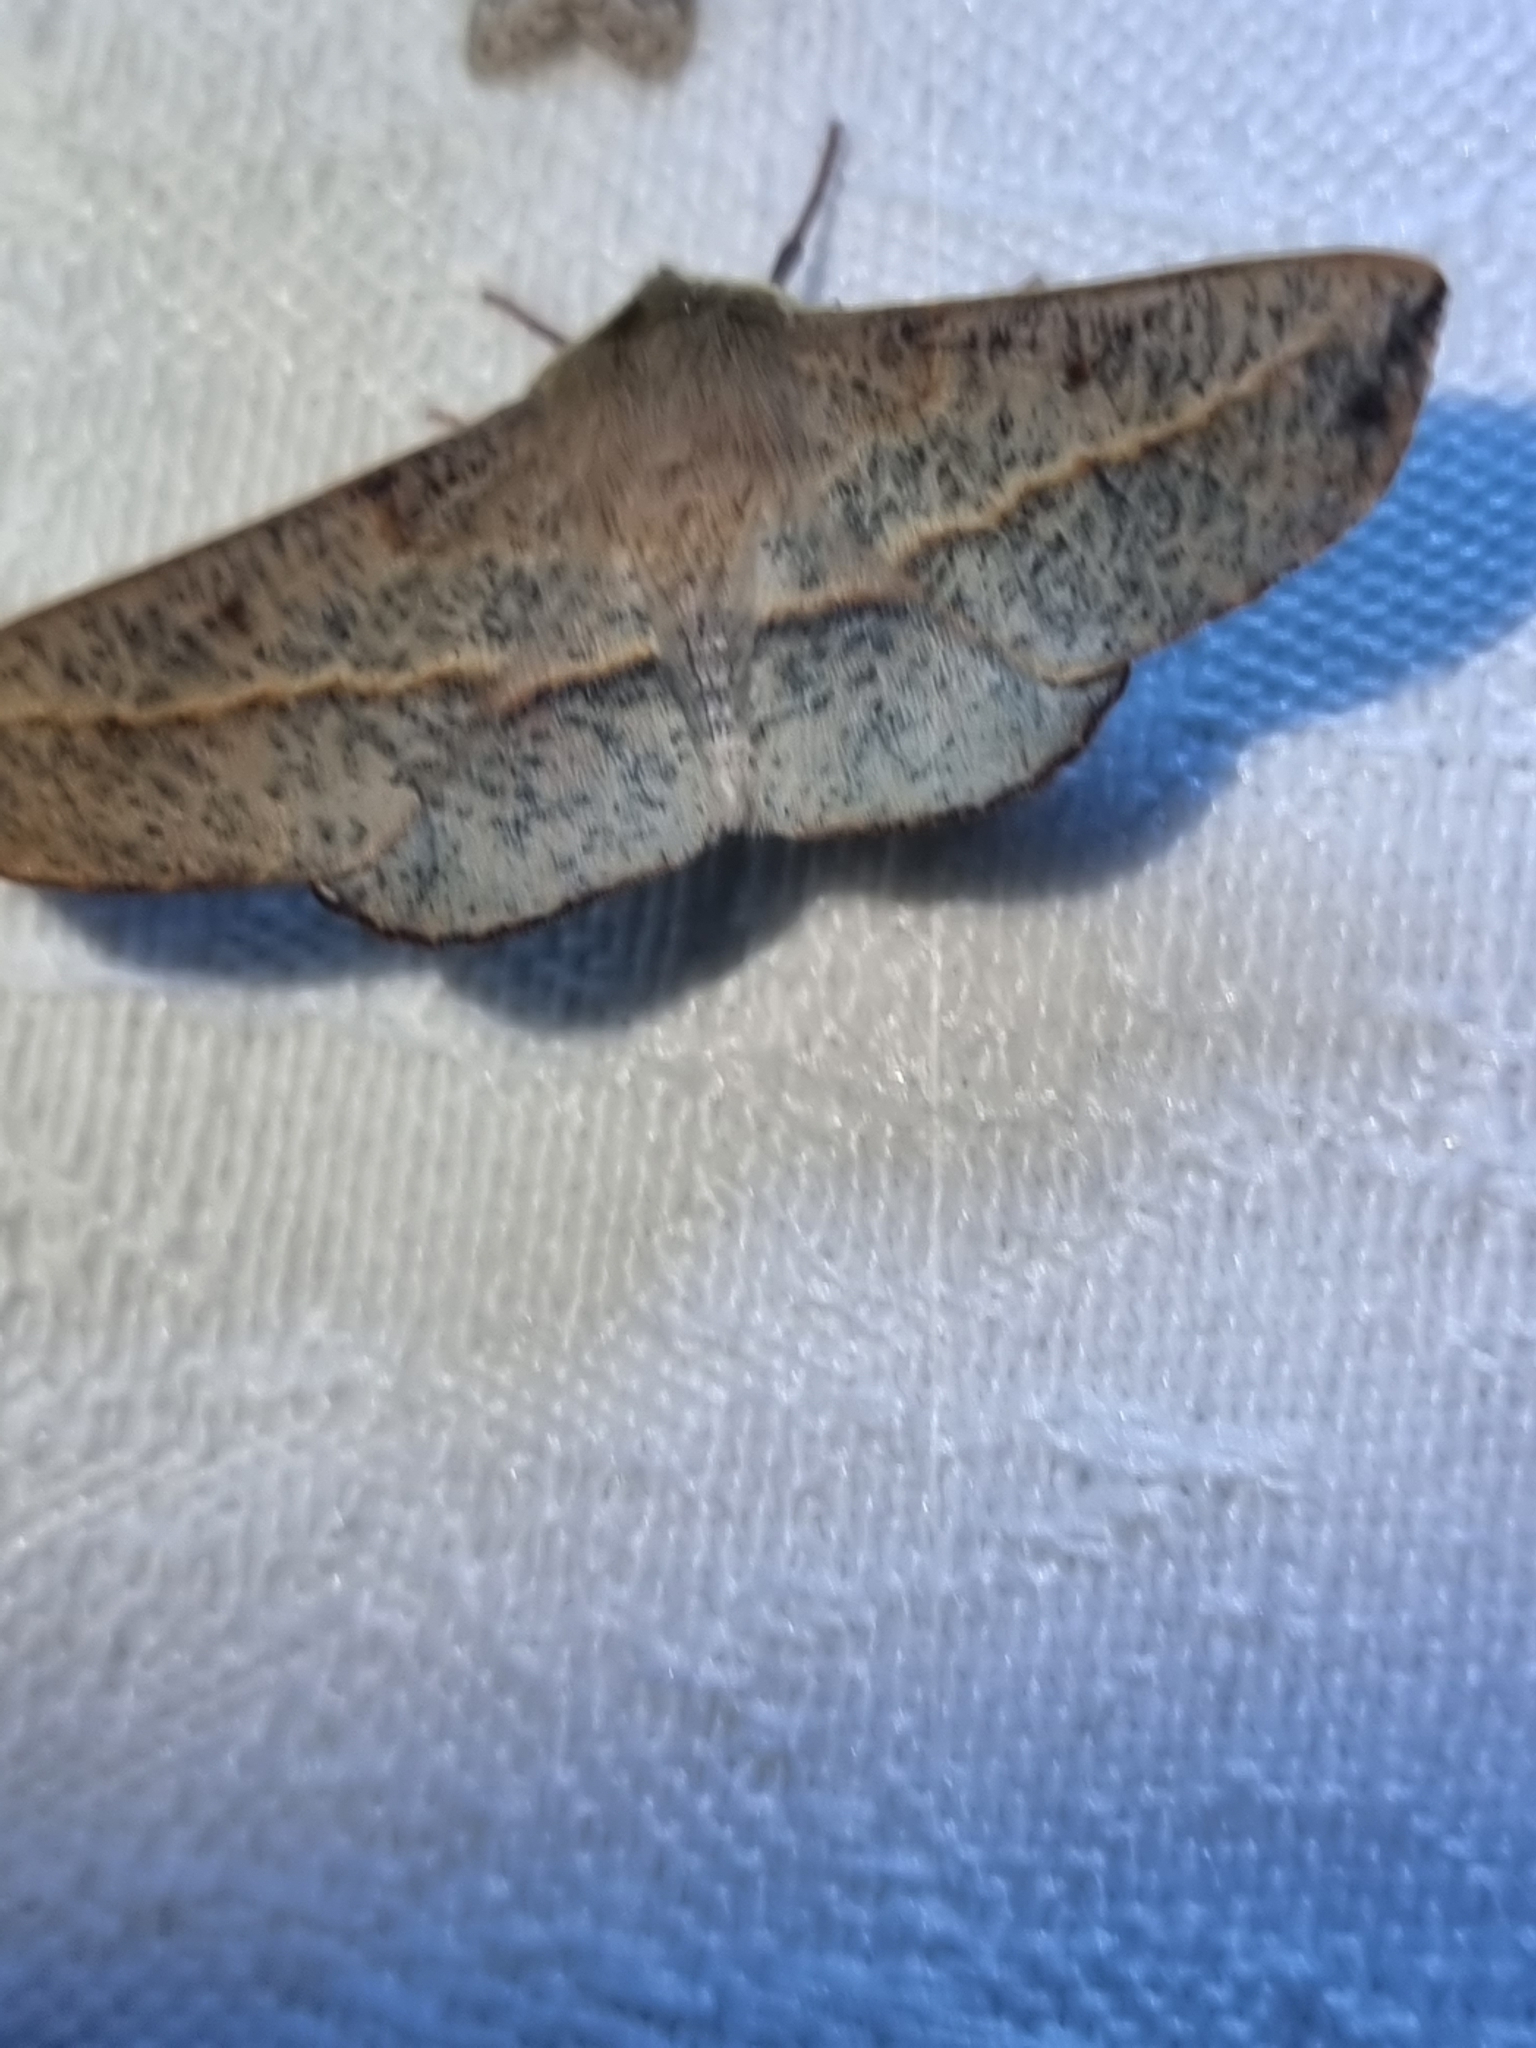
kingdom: Animalia
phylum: Arthropoda
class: Insecta
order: Lepidoptera
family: Geometridae
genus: Antictenia
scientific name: Antictenia punctunculus
